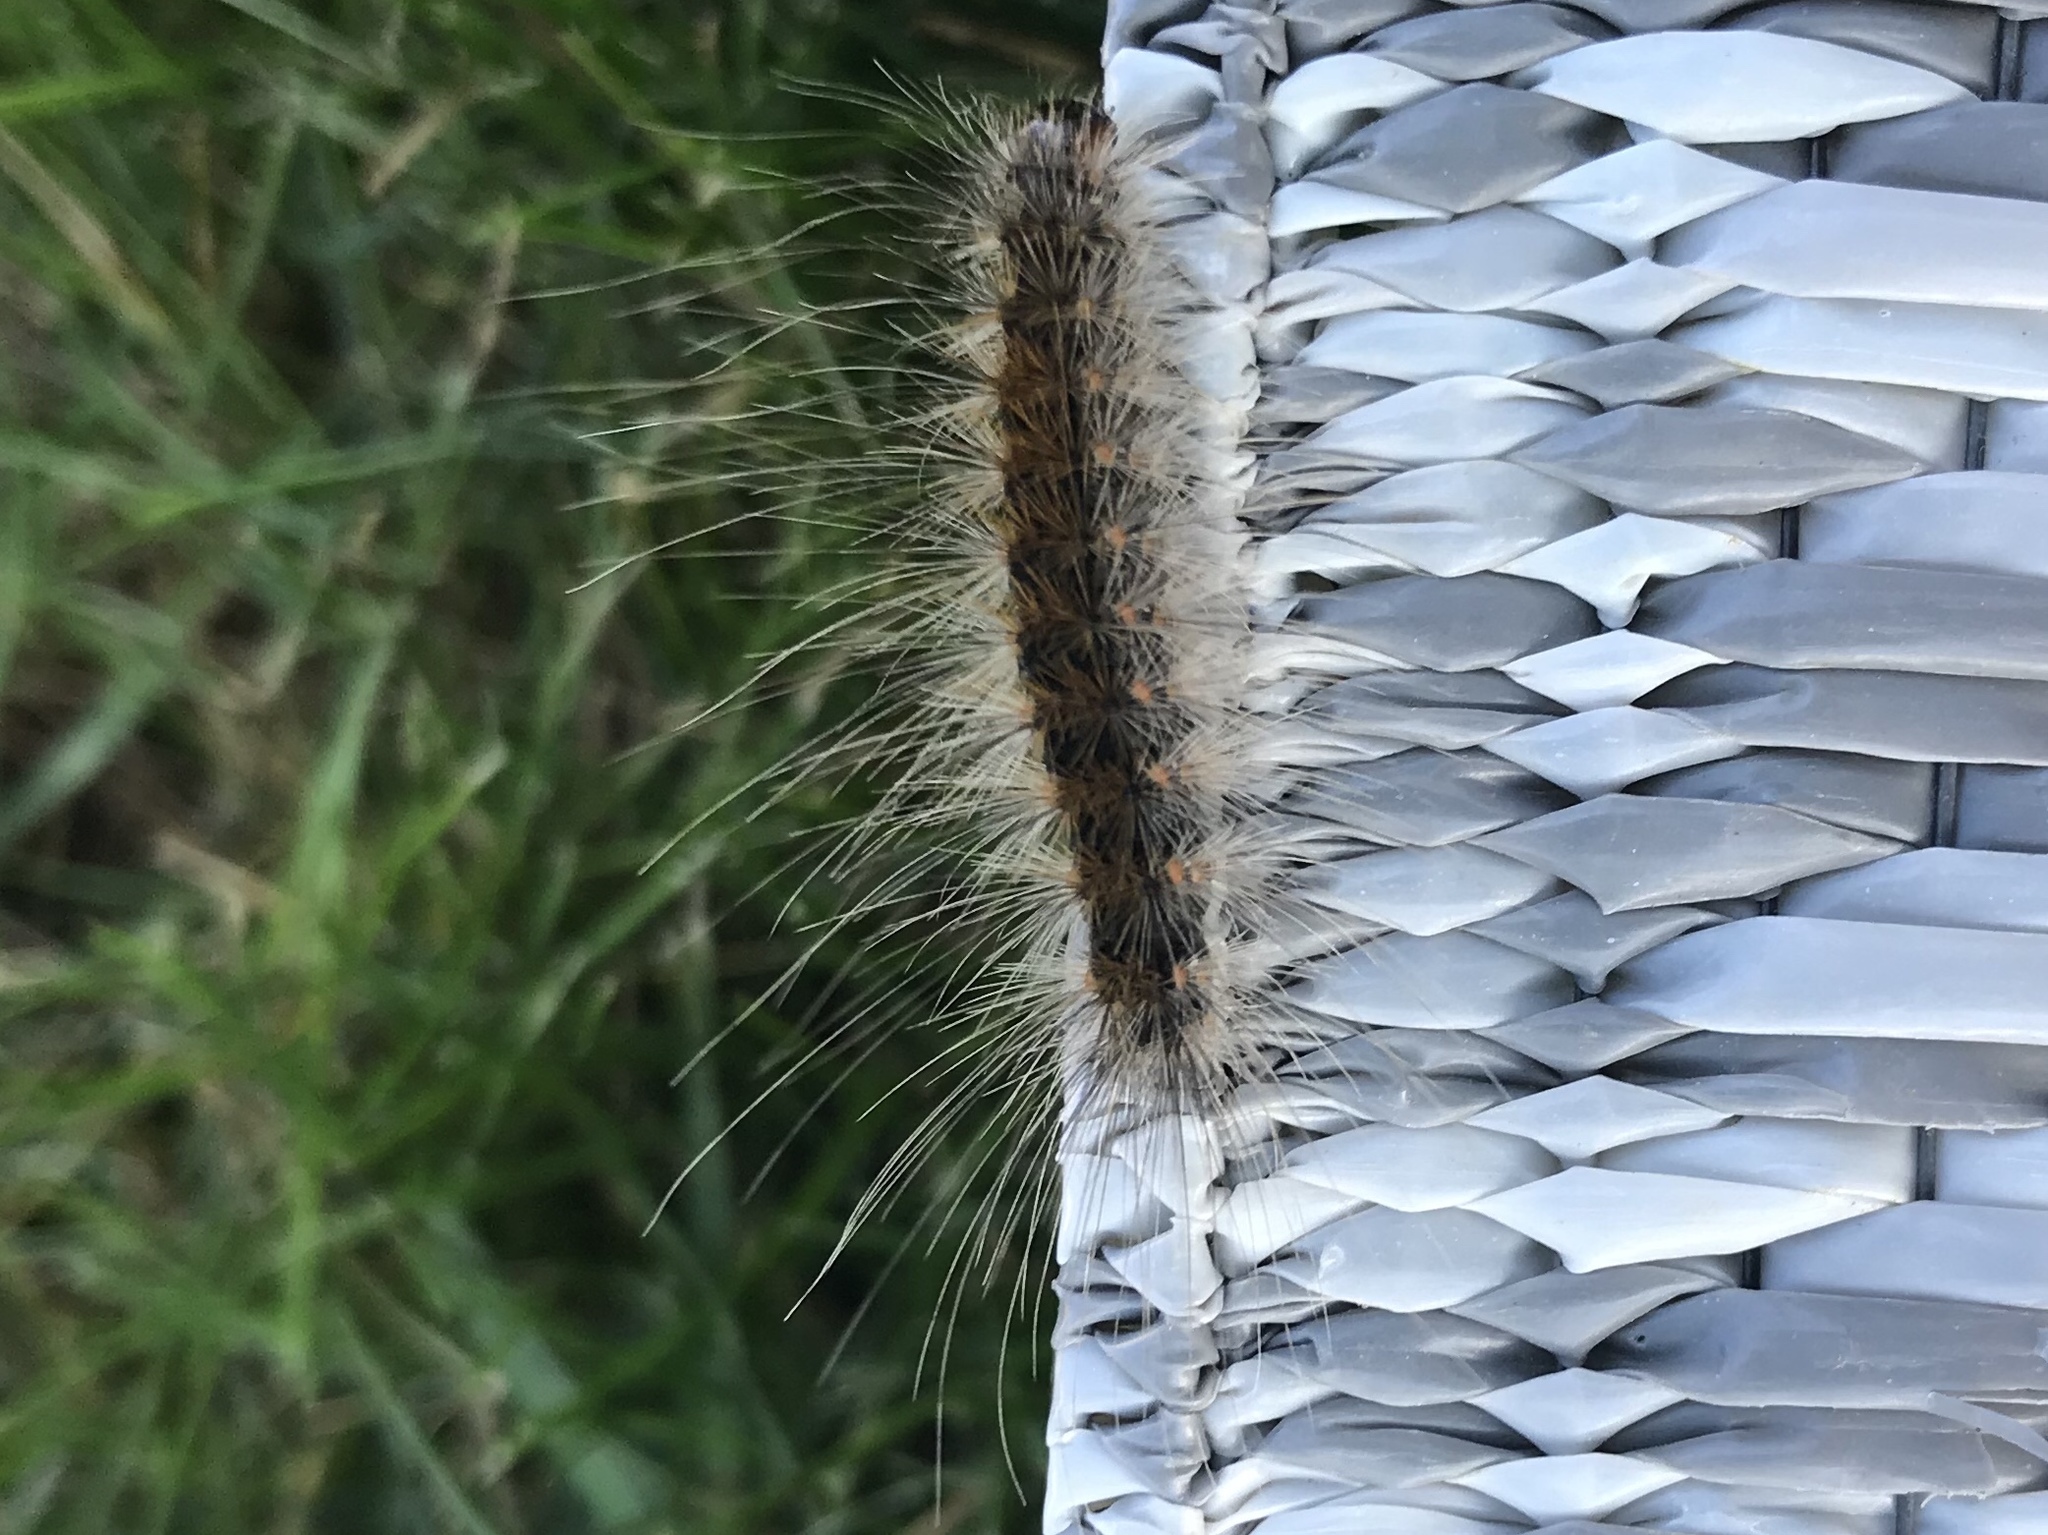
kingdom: Animalia
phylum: Arthropoda
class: Insecta
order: Lepidoptera
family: Erebidae
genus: Hyphantria
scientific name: Hyphantria cunea
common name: American white moth
